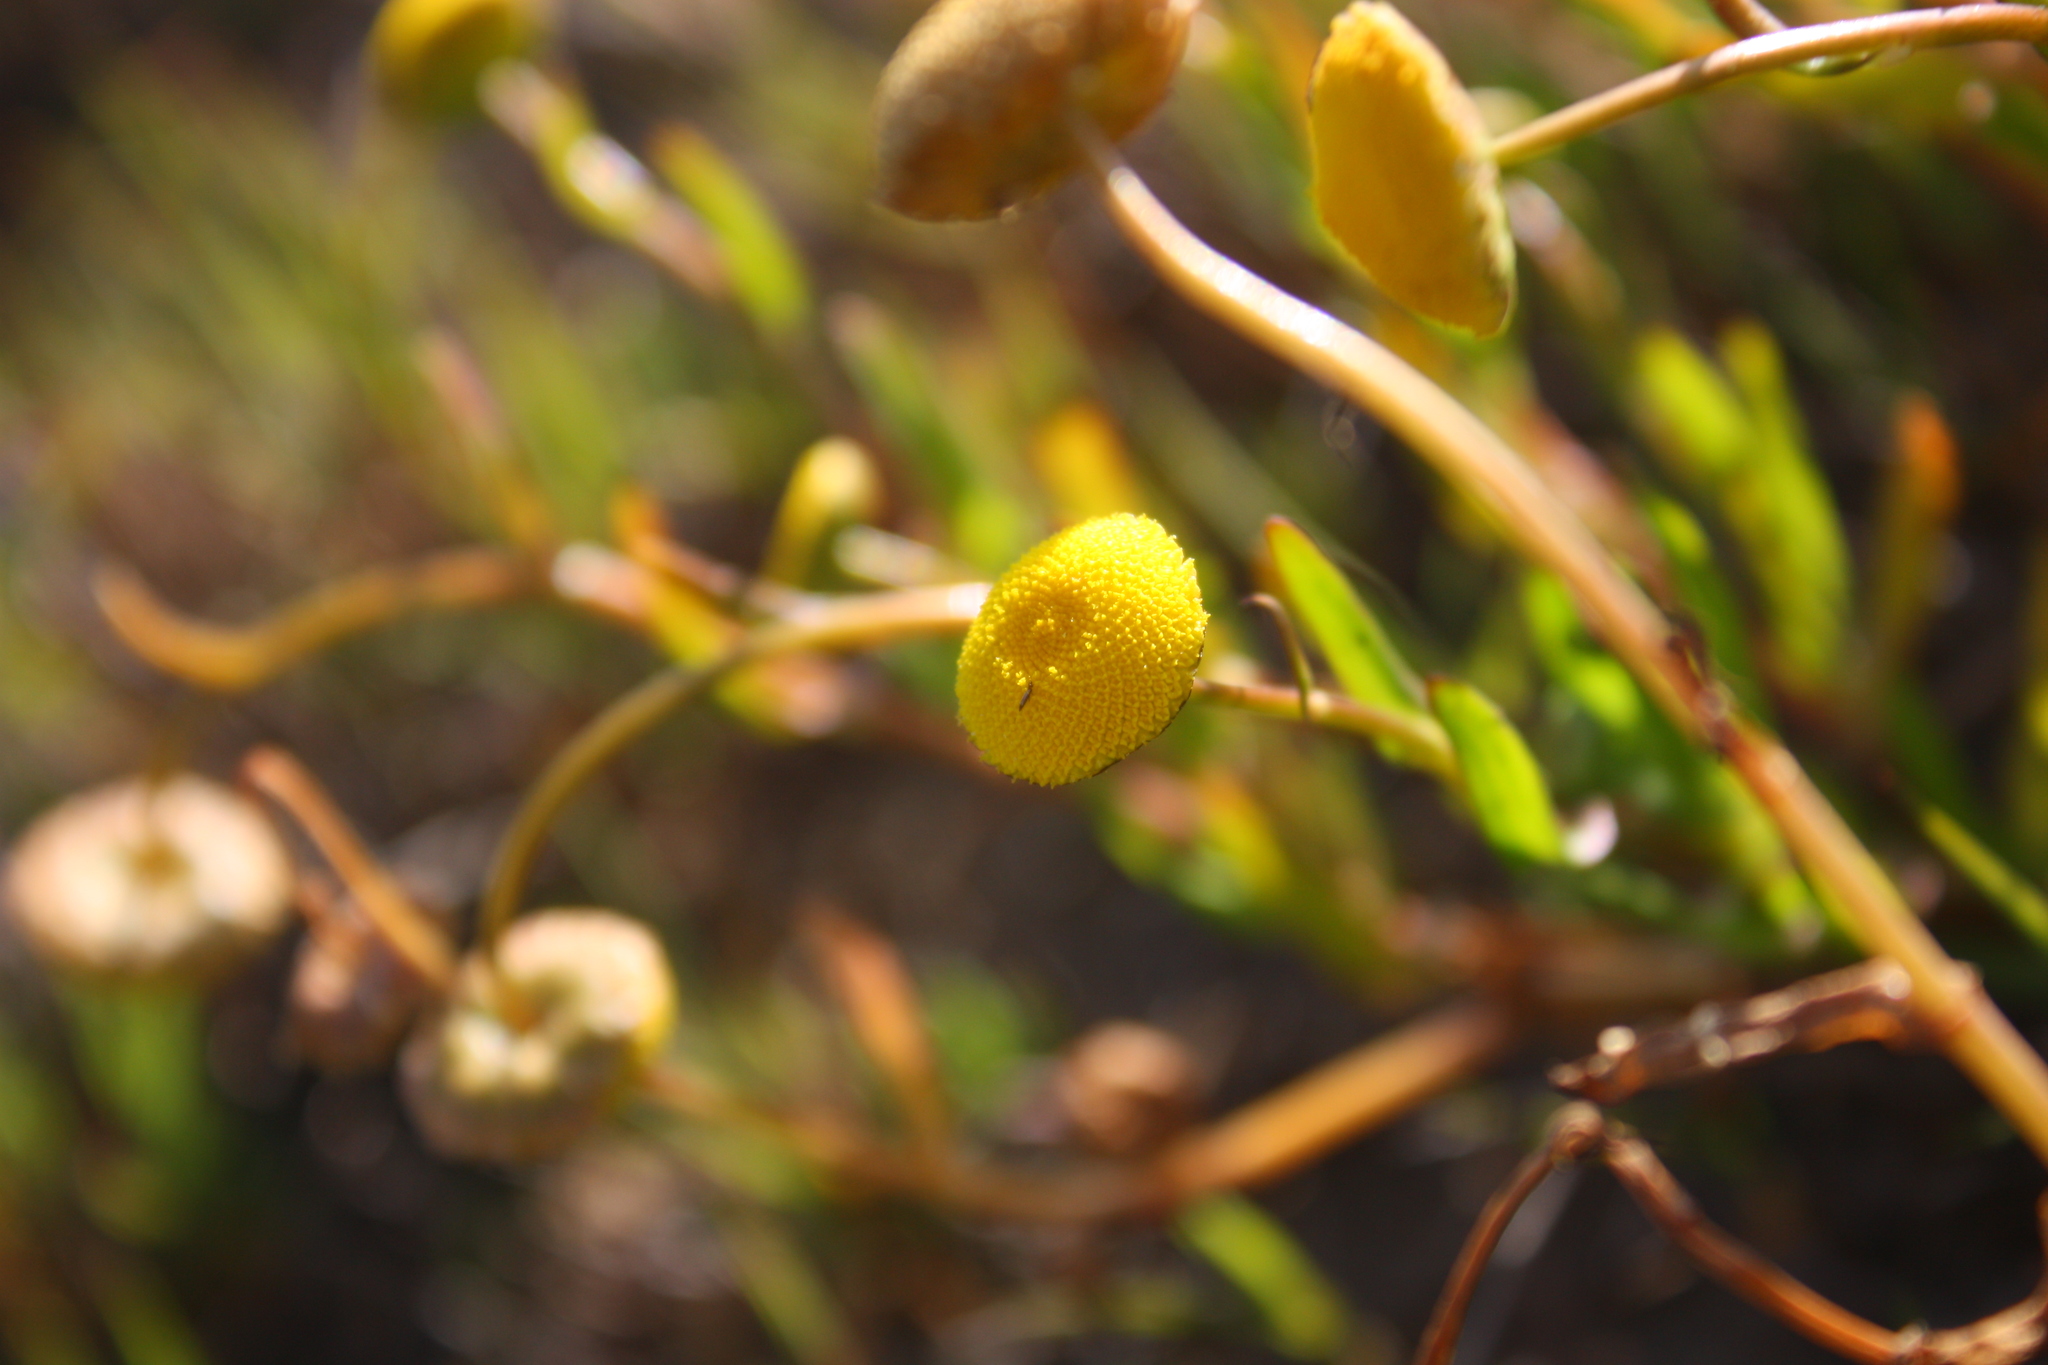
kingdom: Plantae
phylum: Tracheophyta
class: Magnoliopsida
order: Asterales
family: Asteraceae
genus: Cotula
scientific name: Cotula coronopifolia
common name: Buttonweed
